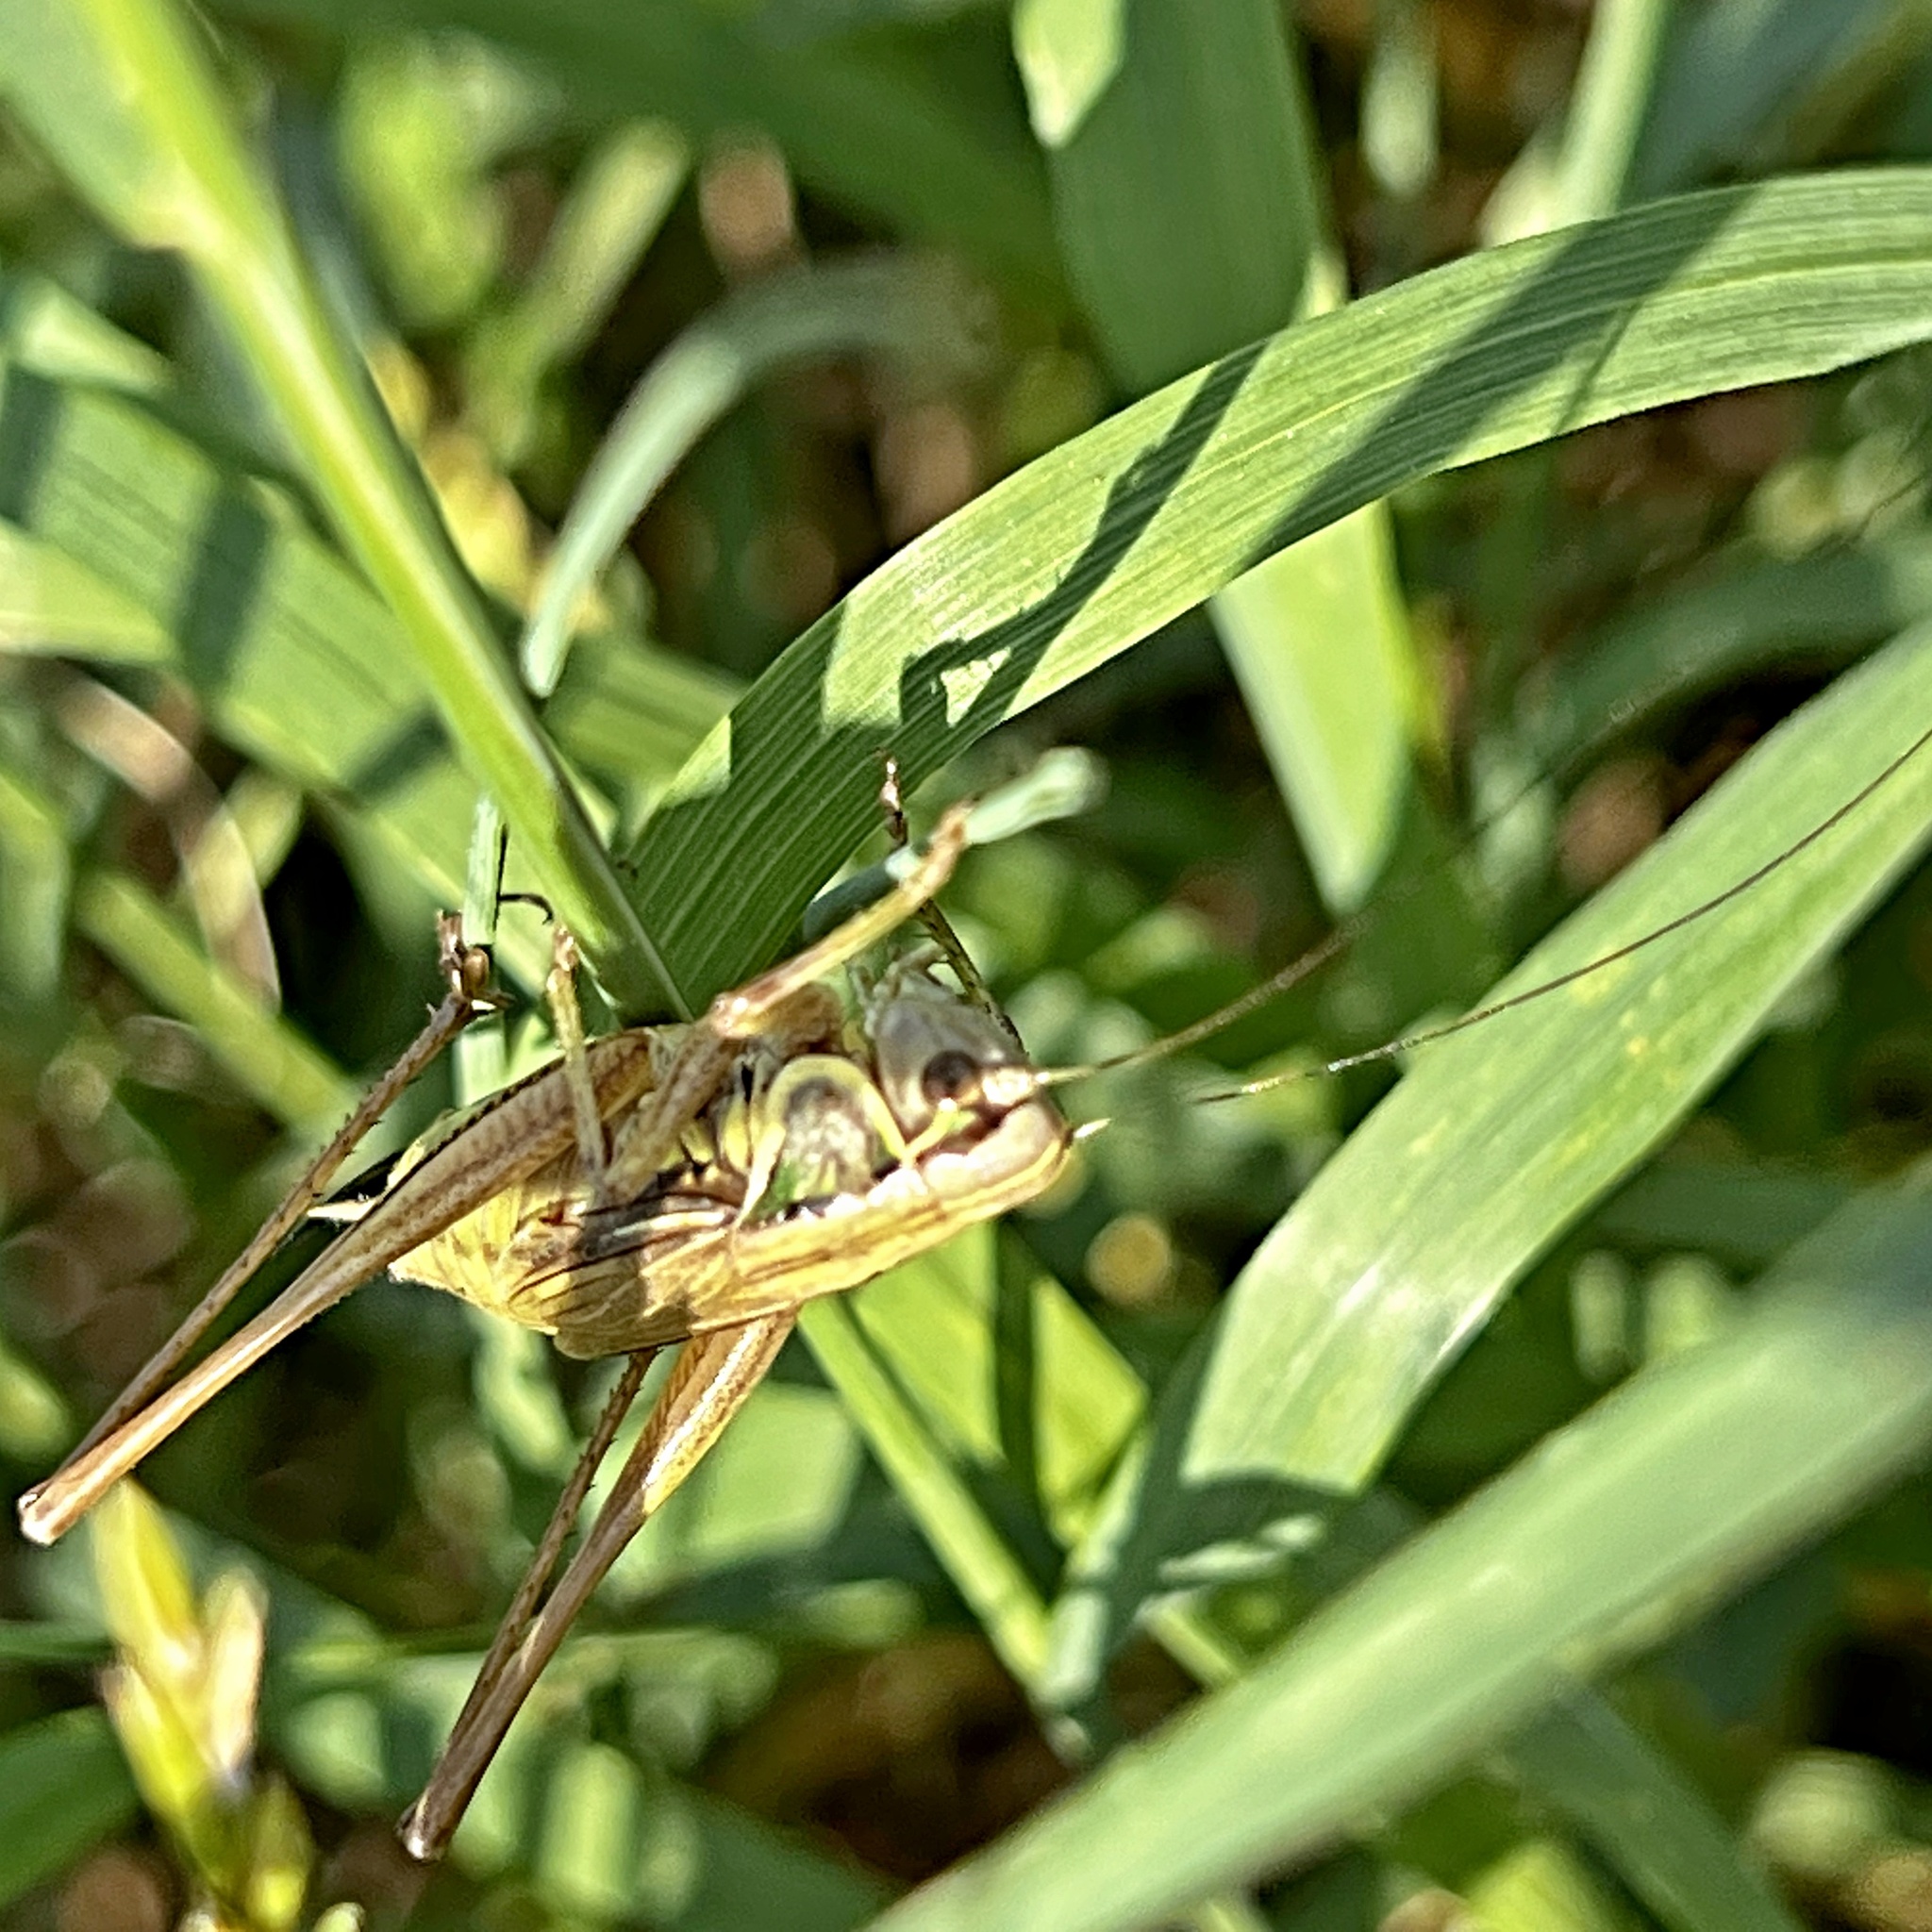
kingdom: Animalia
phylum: Arthropoda
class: Insecta
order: Orthoptera
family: Tettigoniidae
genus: Roeseliana
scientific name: Roeseliana roeselii
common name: Roesel's bush cricket
